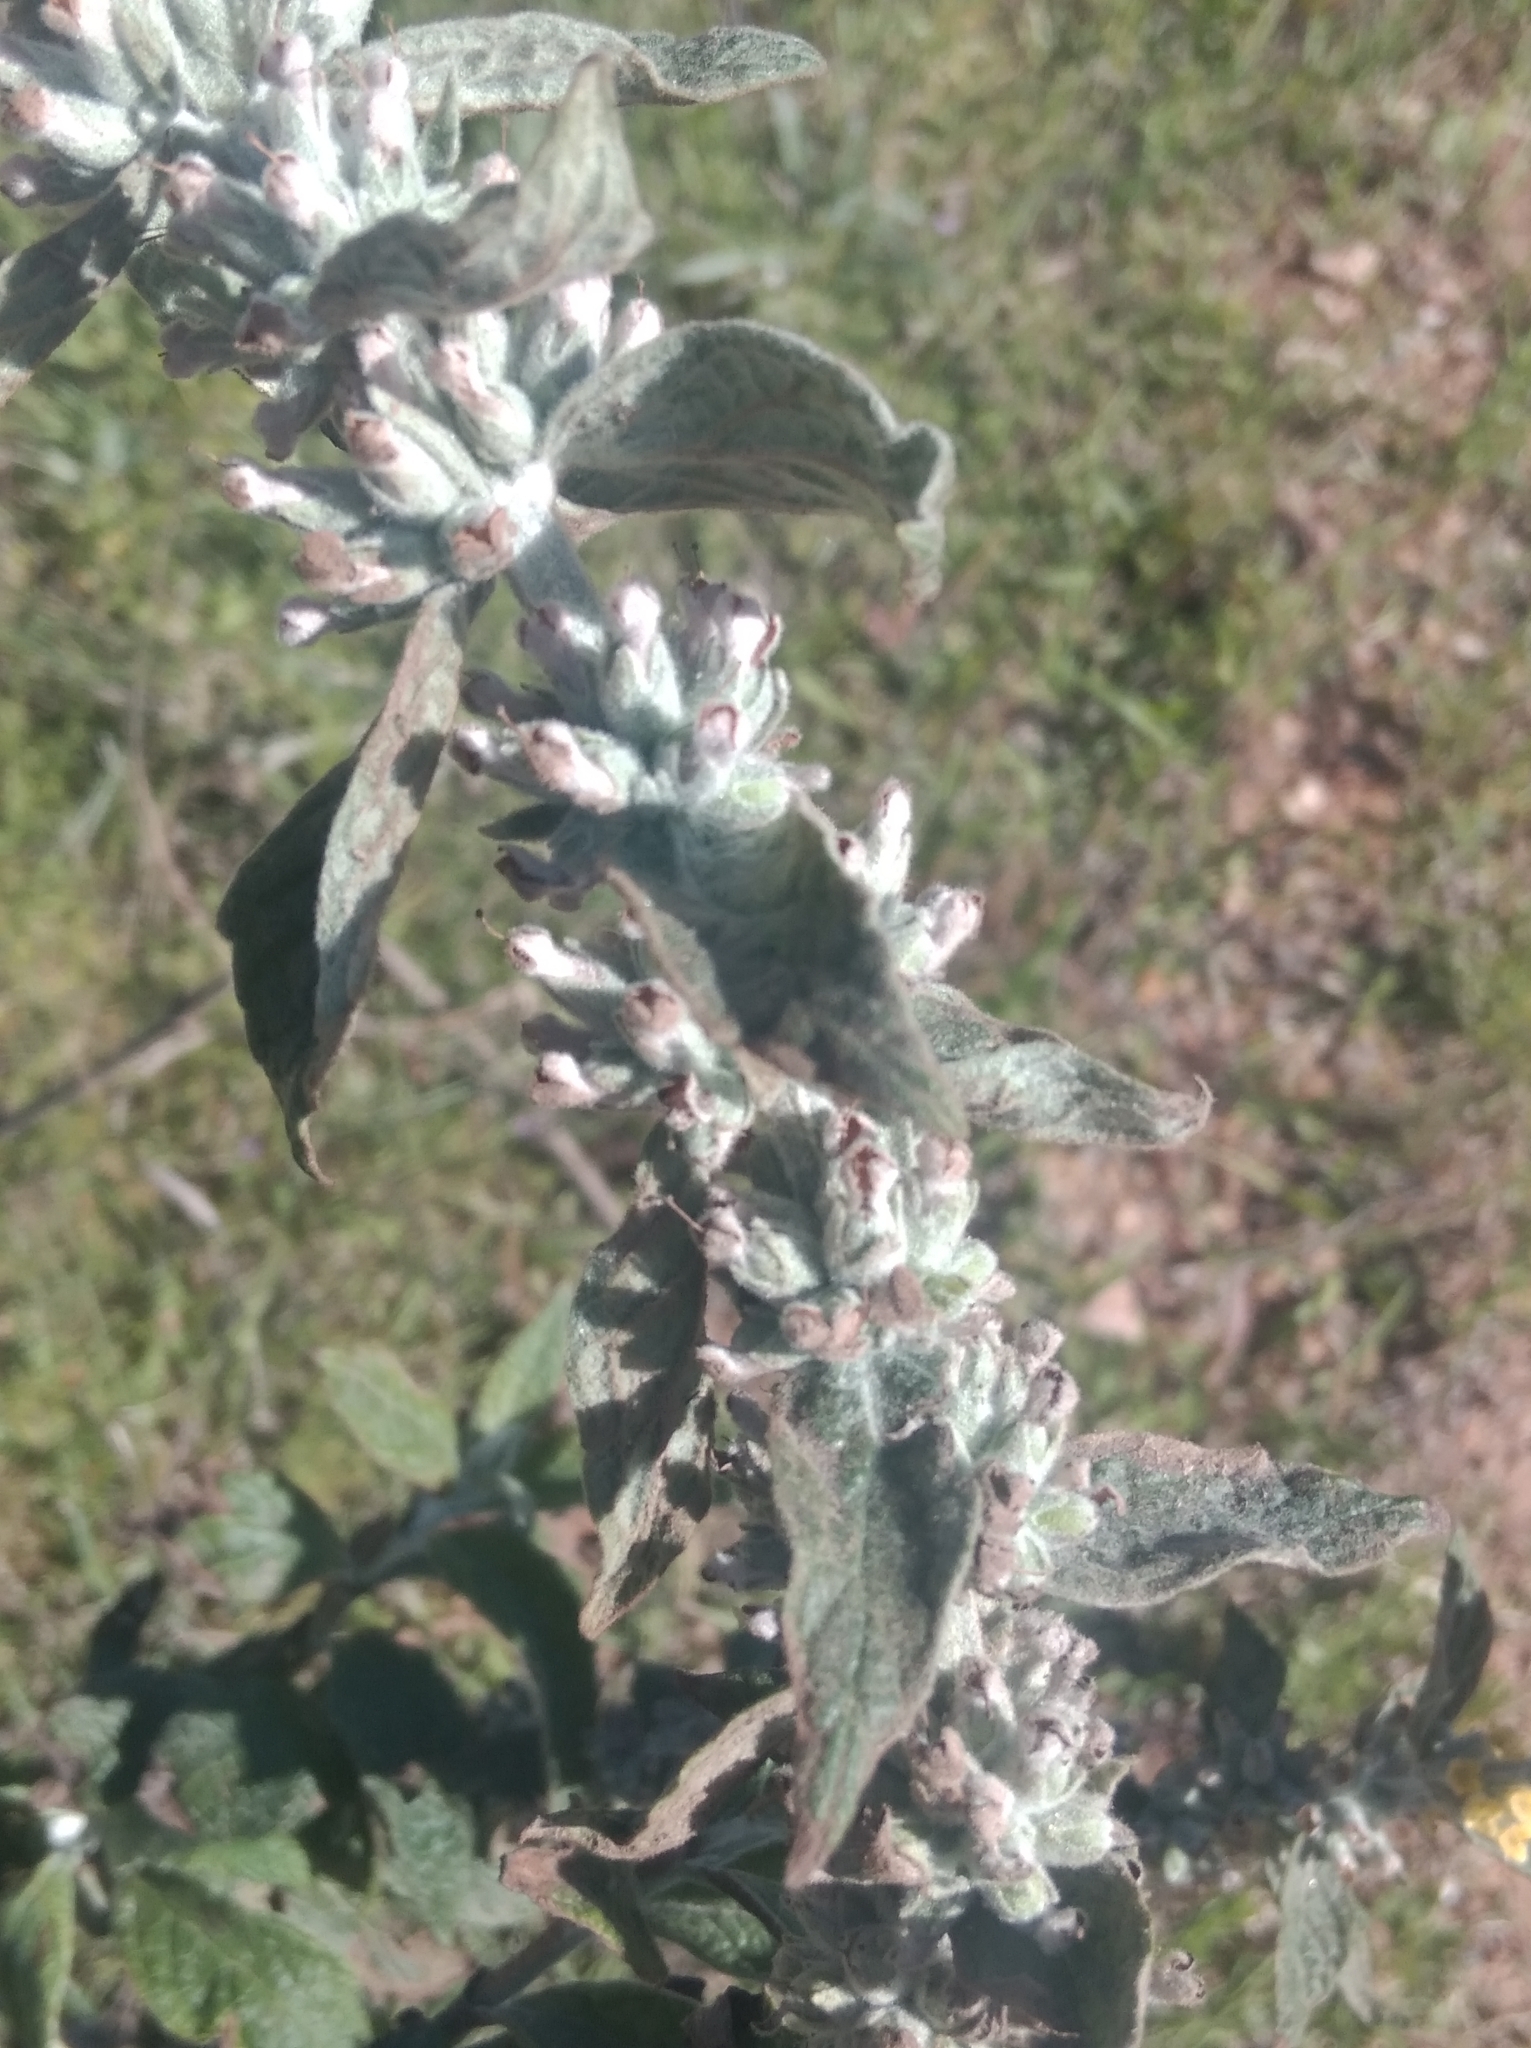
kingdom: Plantae
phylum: Tracheophyta
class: Magnoliopsida
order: Lamiales
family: Scrophulariaceae
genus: Buddleja
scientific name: Buddleja stachyoides
